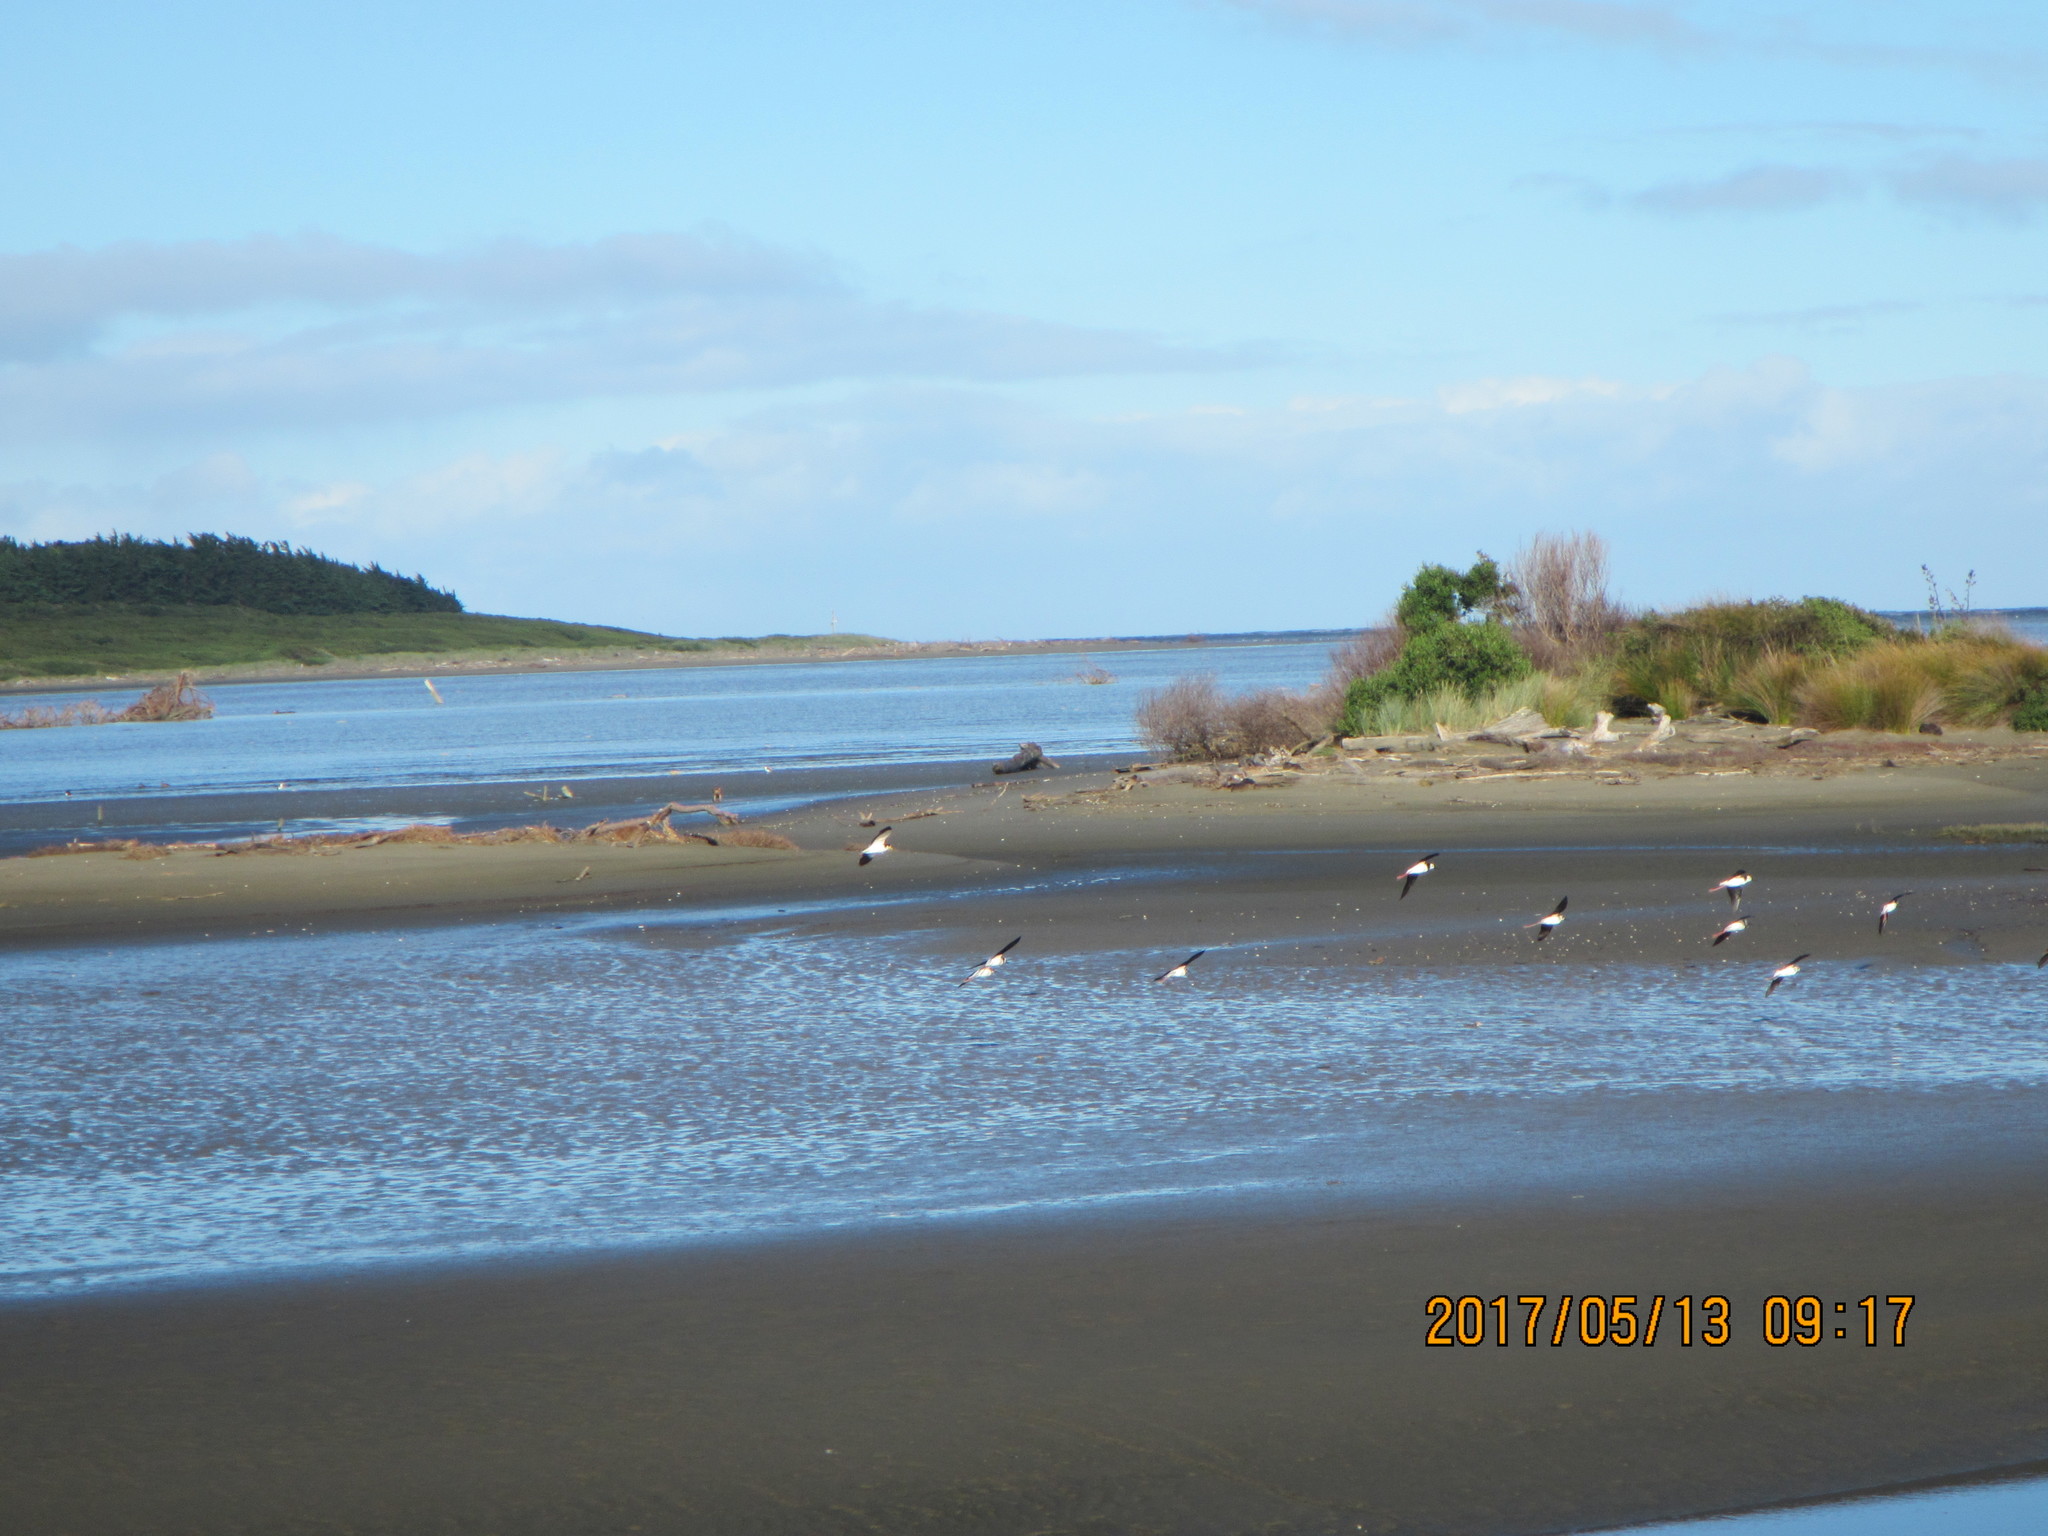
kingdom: Animalia
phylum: Chordata
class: Aves
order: Charadriiformes
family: Recurvirostridae
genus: Himantopus
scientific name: Himantopus leucocephalus
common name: White-headed stilt
